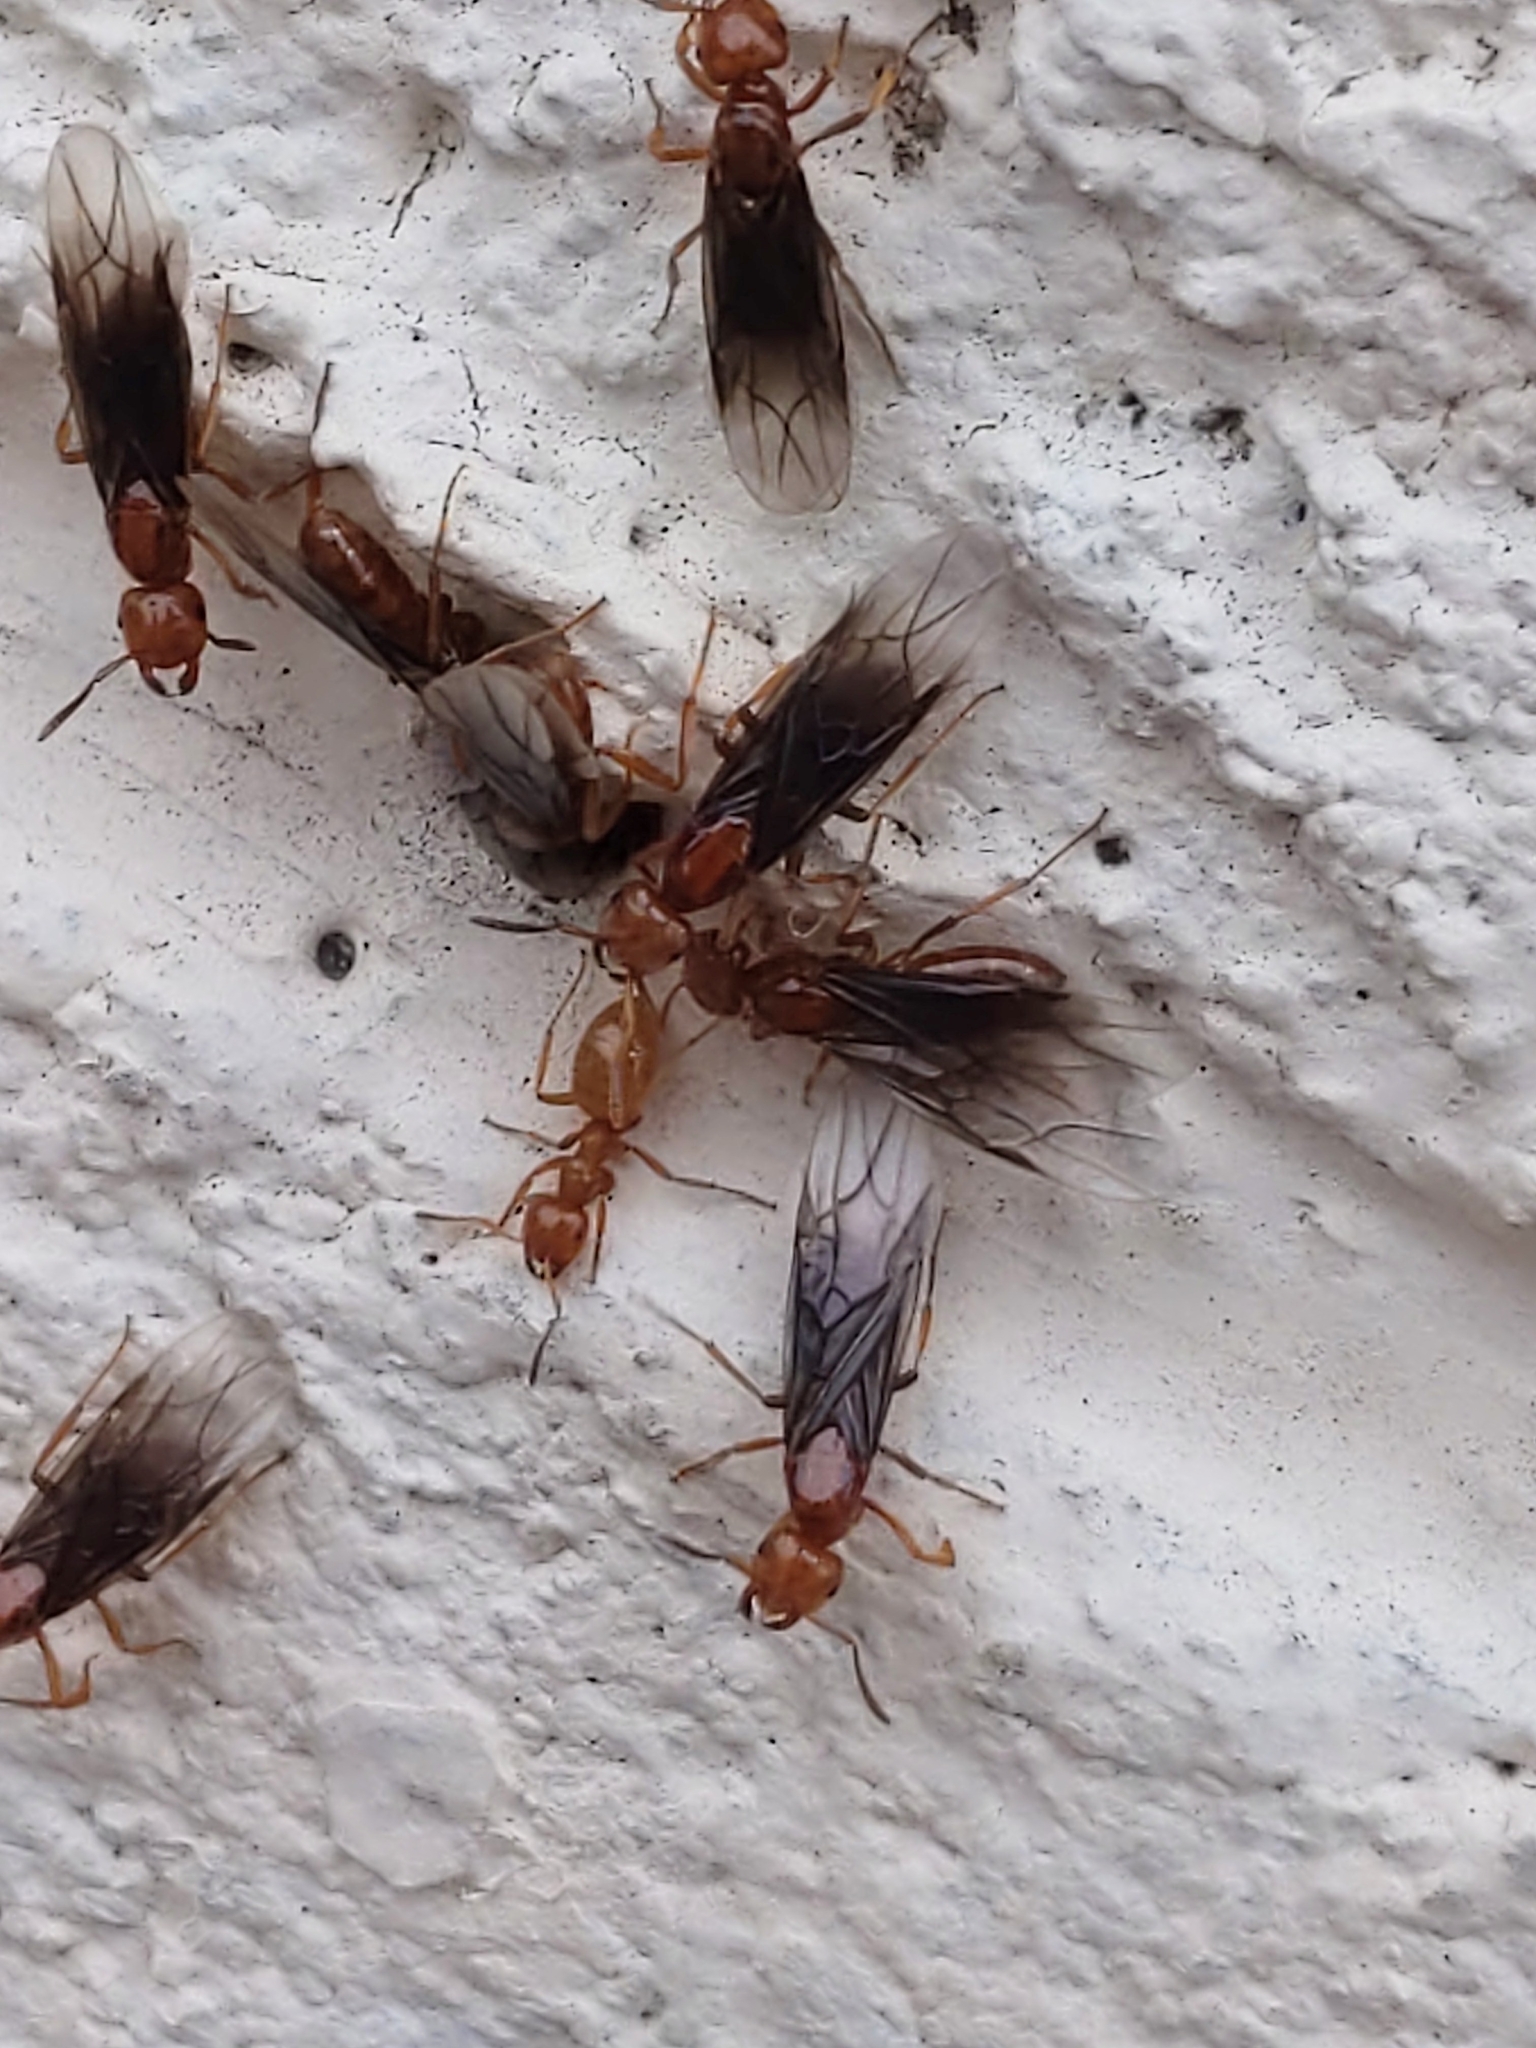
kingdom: Animalia
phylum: Arthropoda
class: Insecta
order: Hymenoptera
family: Formicidae
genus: Acanthomyops
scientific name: Acanthomyops interjectus
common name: Larger yellow ant
